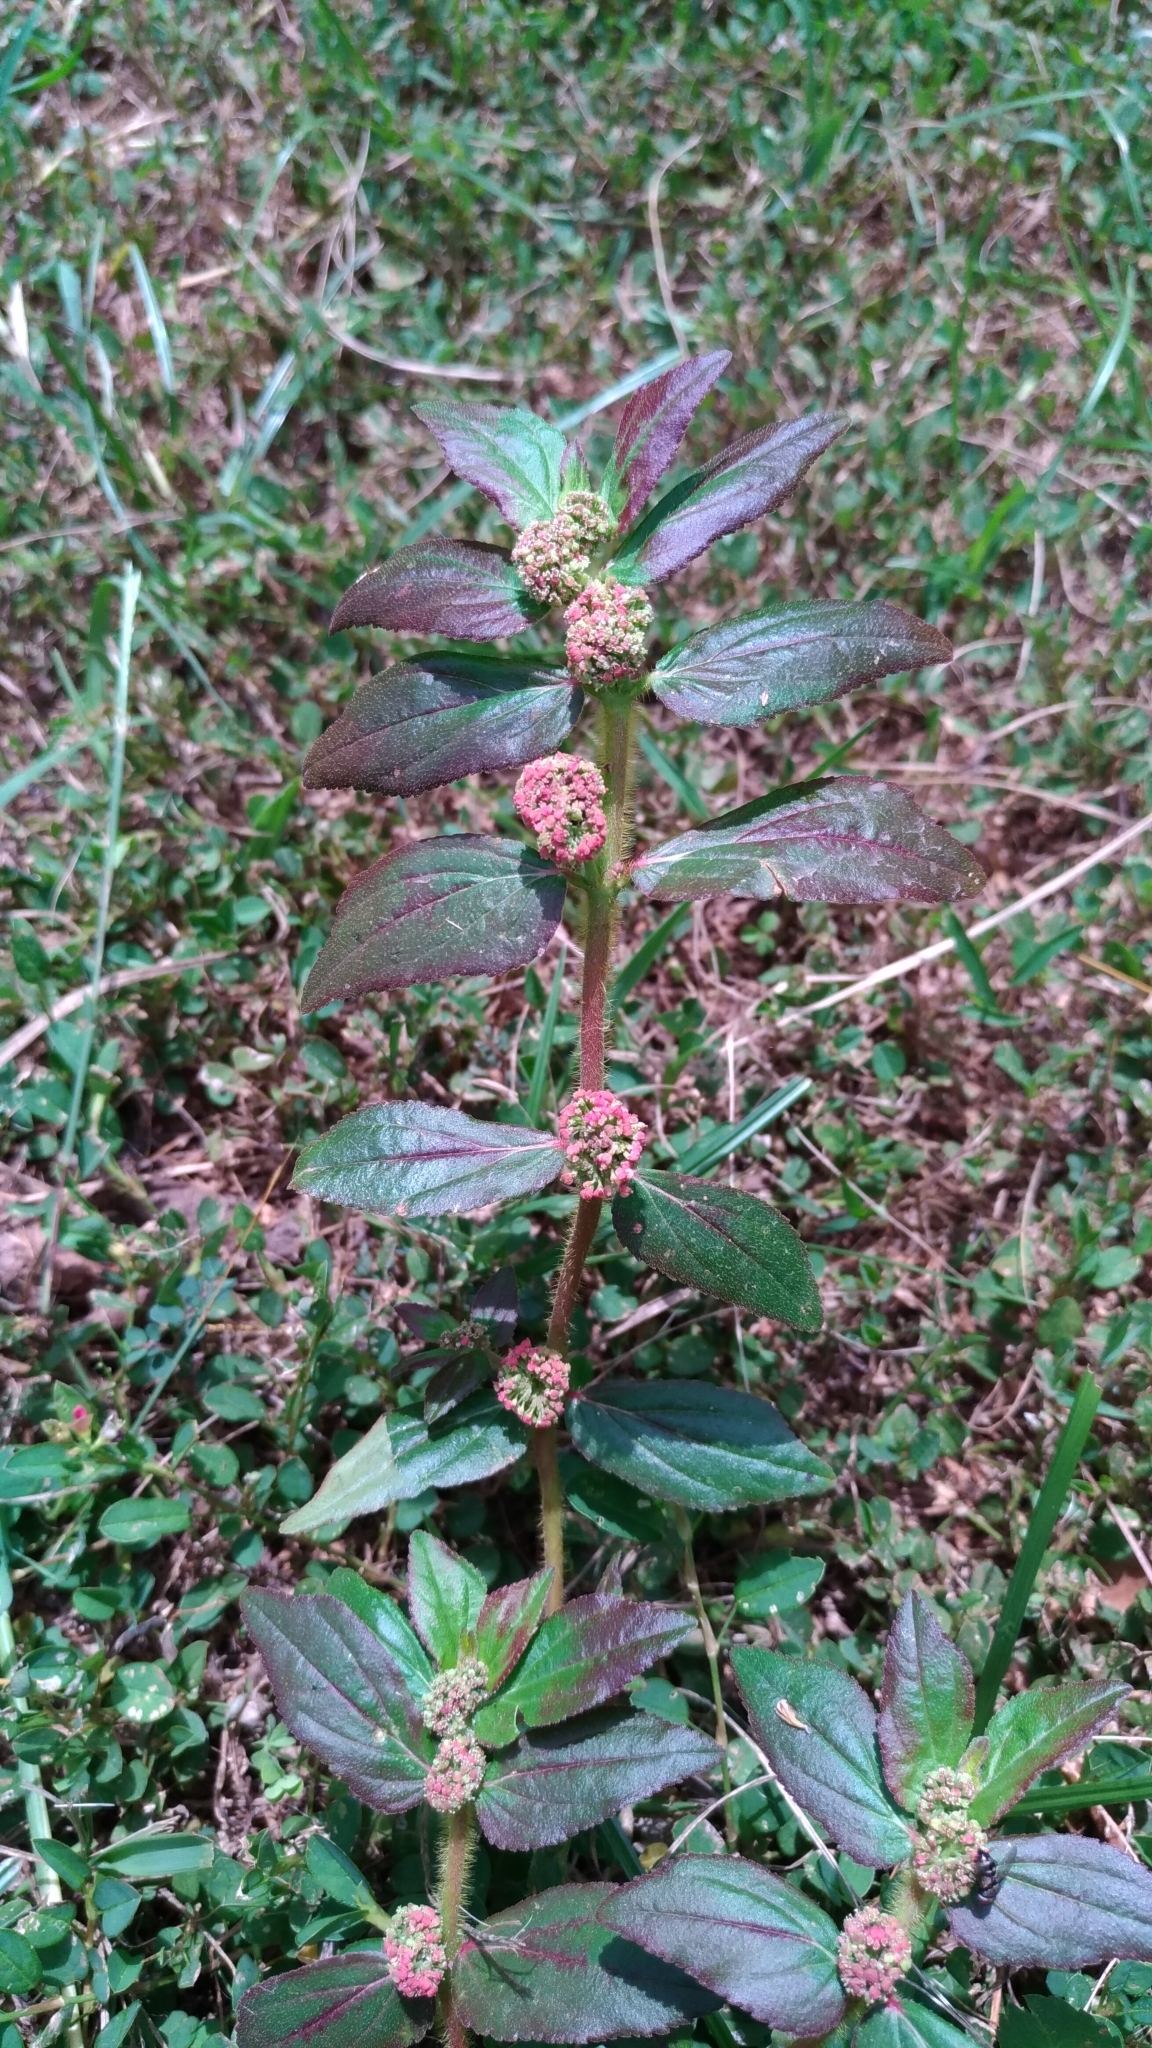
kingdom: Plantae
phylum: Tracheophyta
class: Magnoliopsida
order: Malpighiales
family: Euphorbiaceae
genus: Euphorbia
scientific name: Euphorbia hirta
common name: Pillpod sandmat
